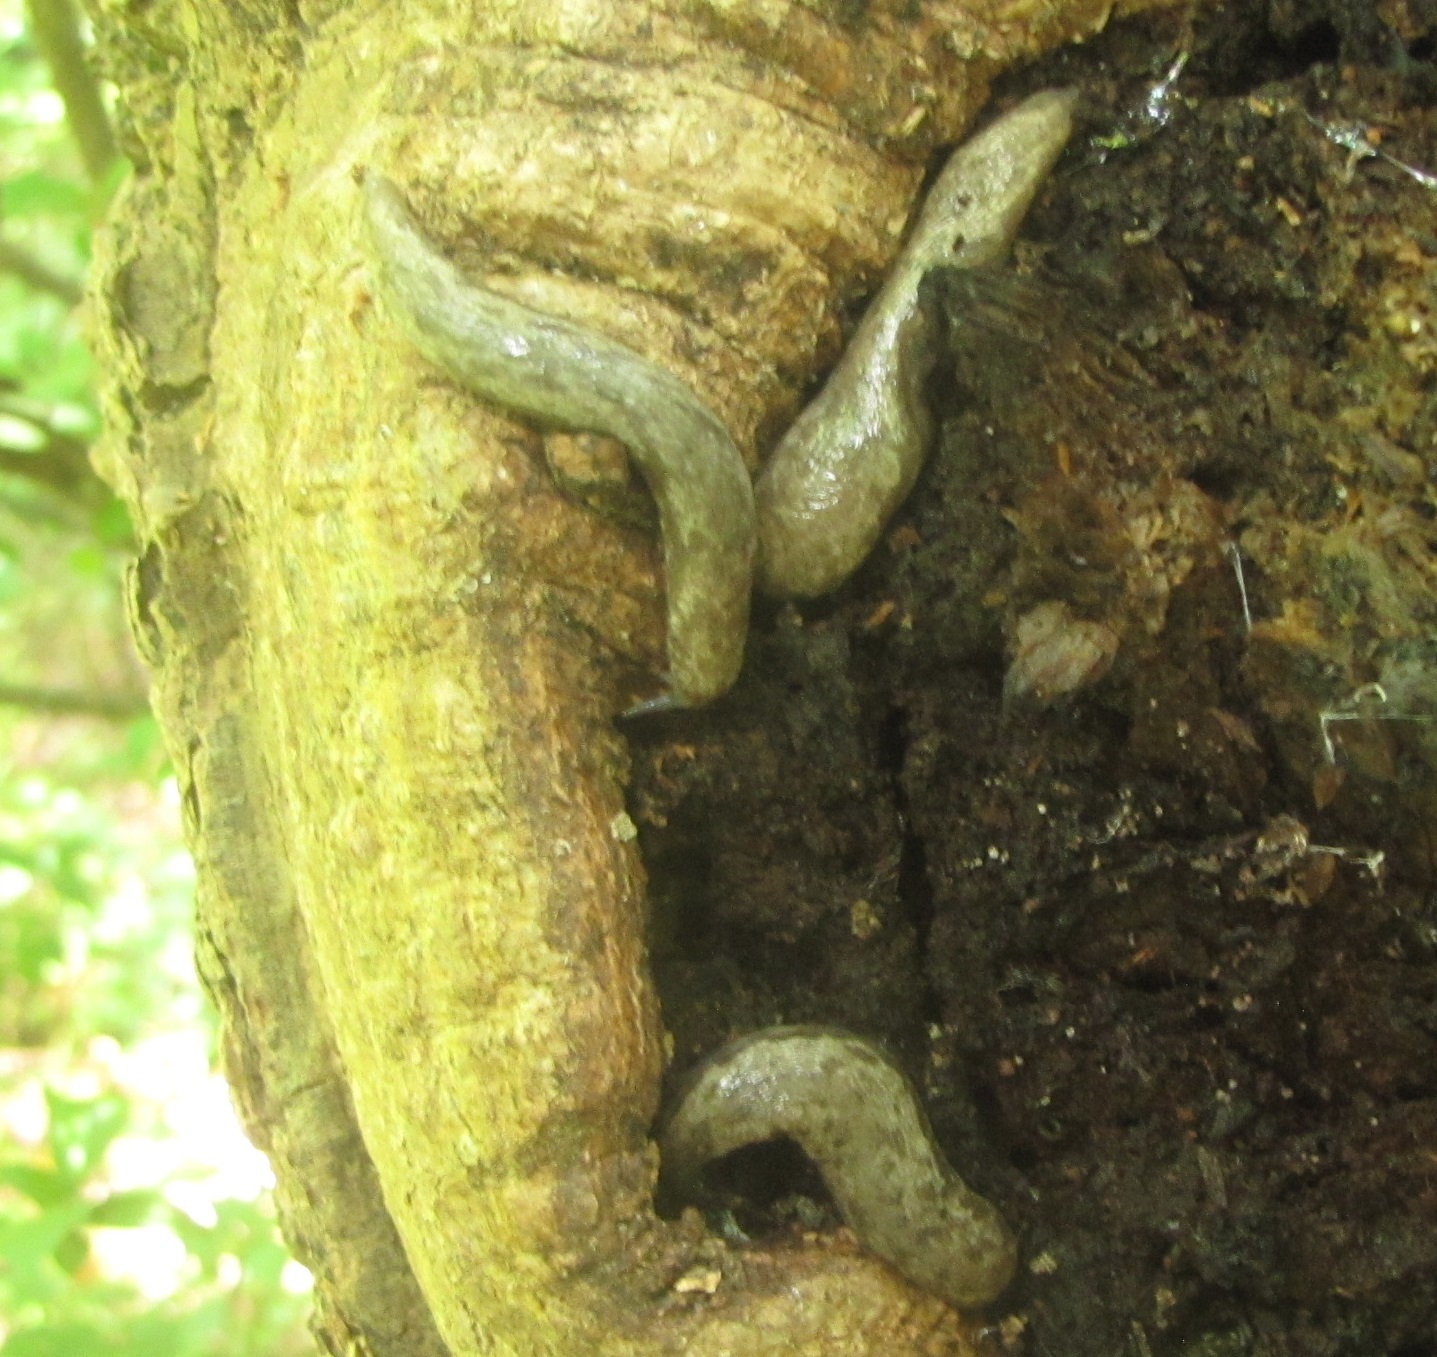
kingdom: Animalia
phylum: Mollusca
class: Gastropoda
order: Stylommatophora
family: Philomycidae
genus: Megapallifera
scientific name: Megapallifera mutabilis
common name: Changeable mantleslug
